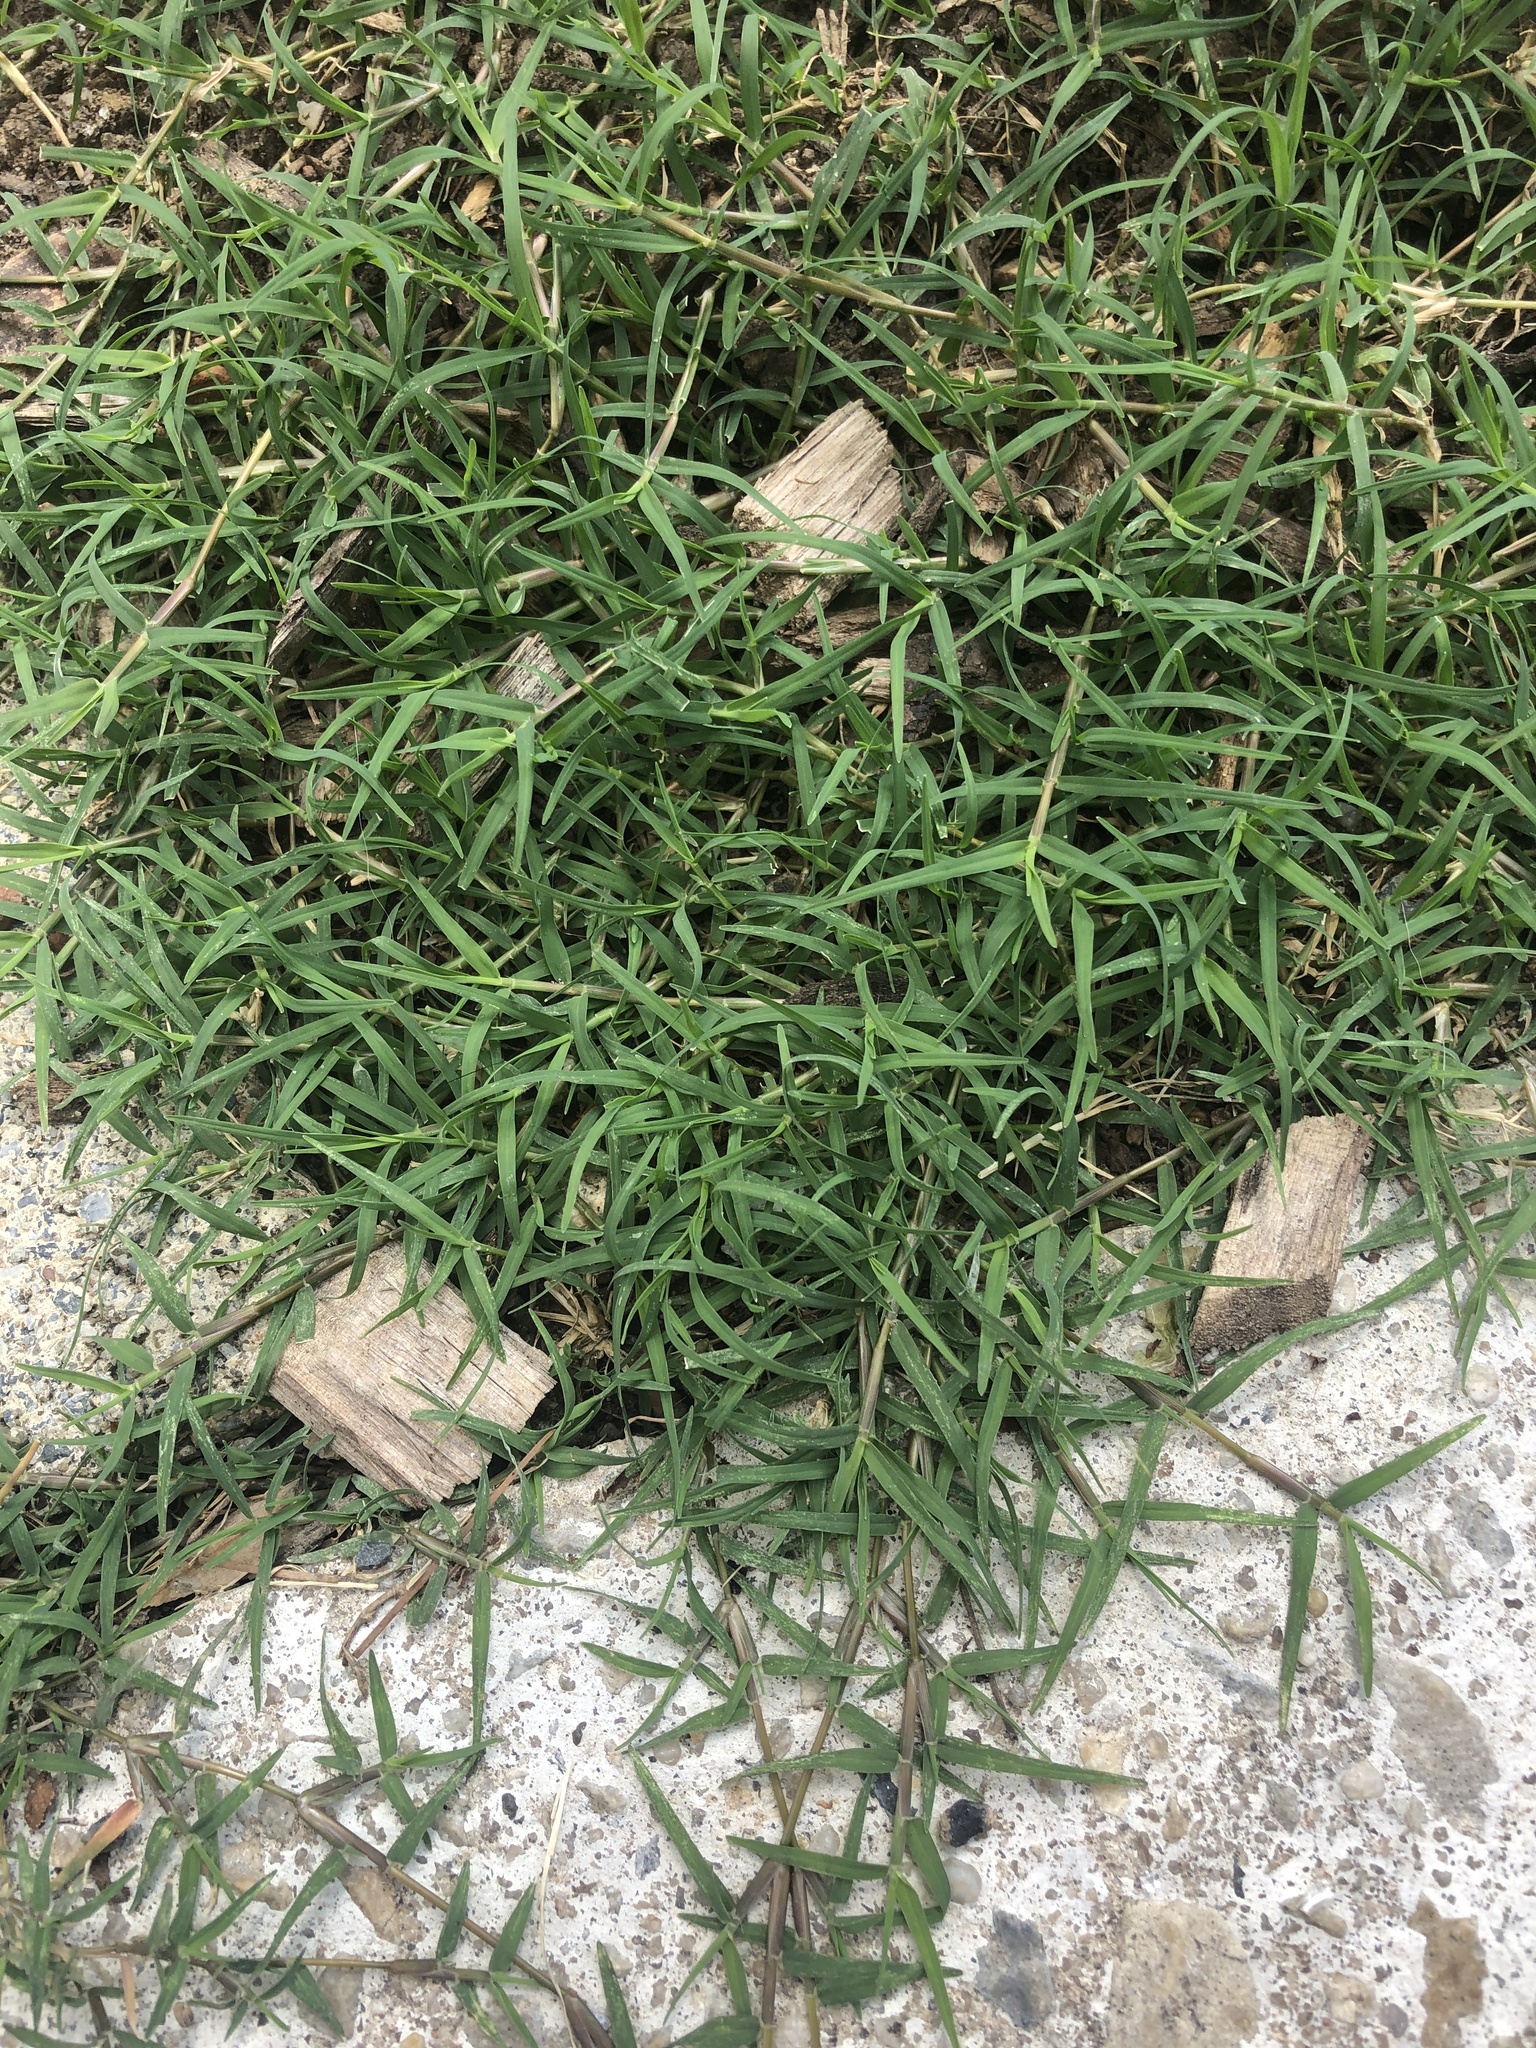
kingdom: Plantae
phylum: Tracheophyta
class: Liliopsida
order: Poales
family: Poaceae
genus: Cynodon
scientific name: Cynodon dactylon
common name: Bermuda grass
